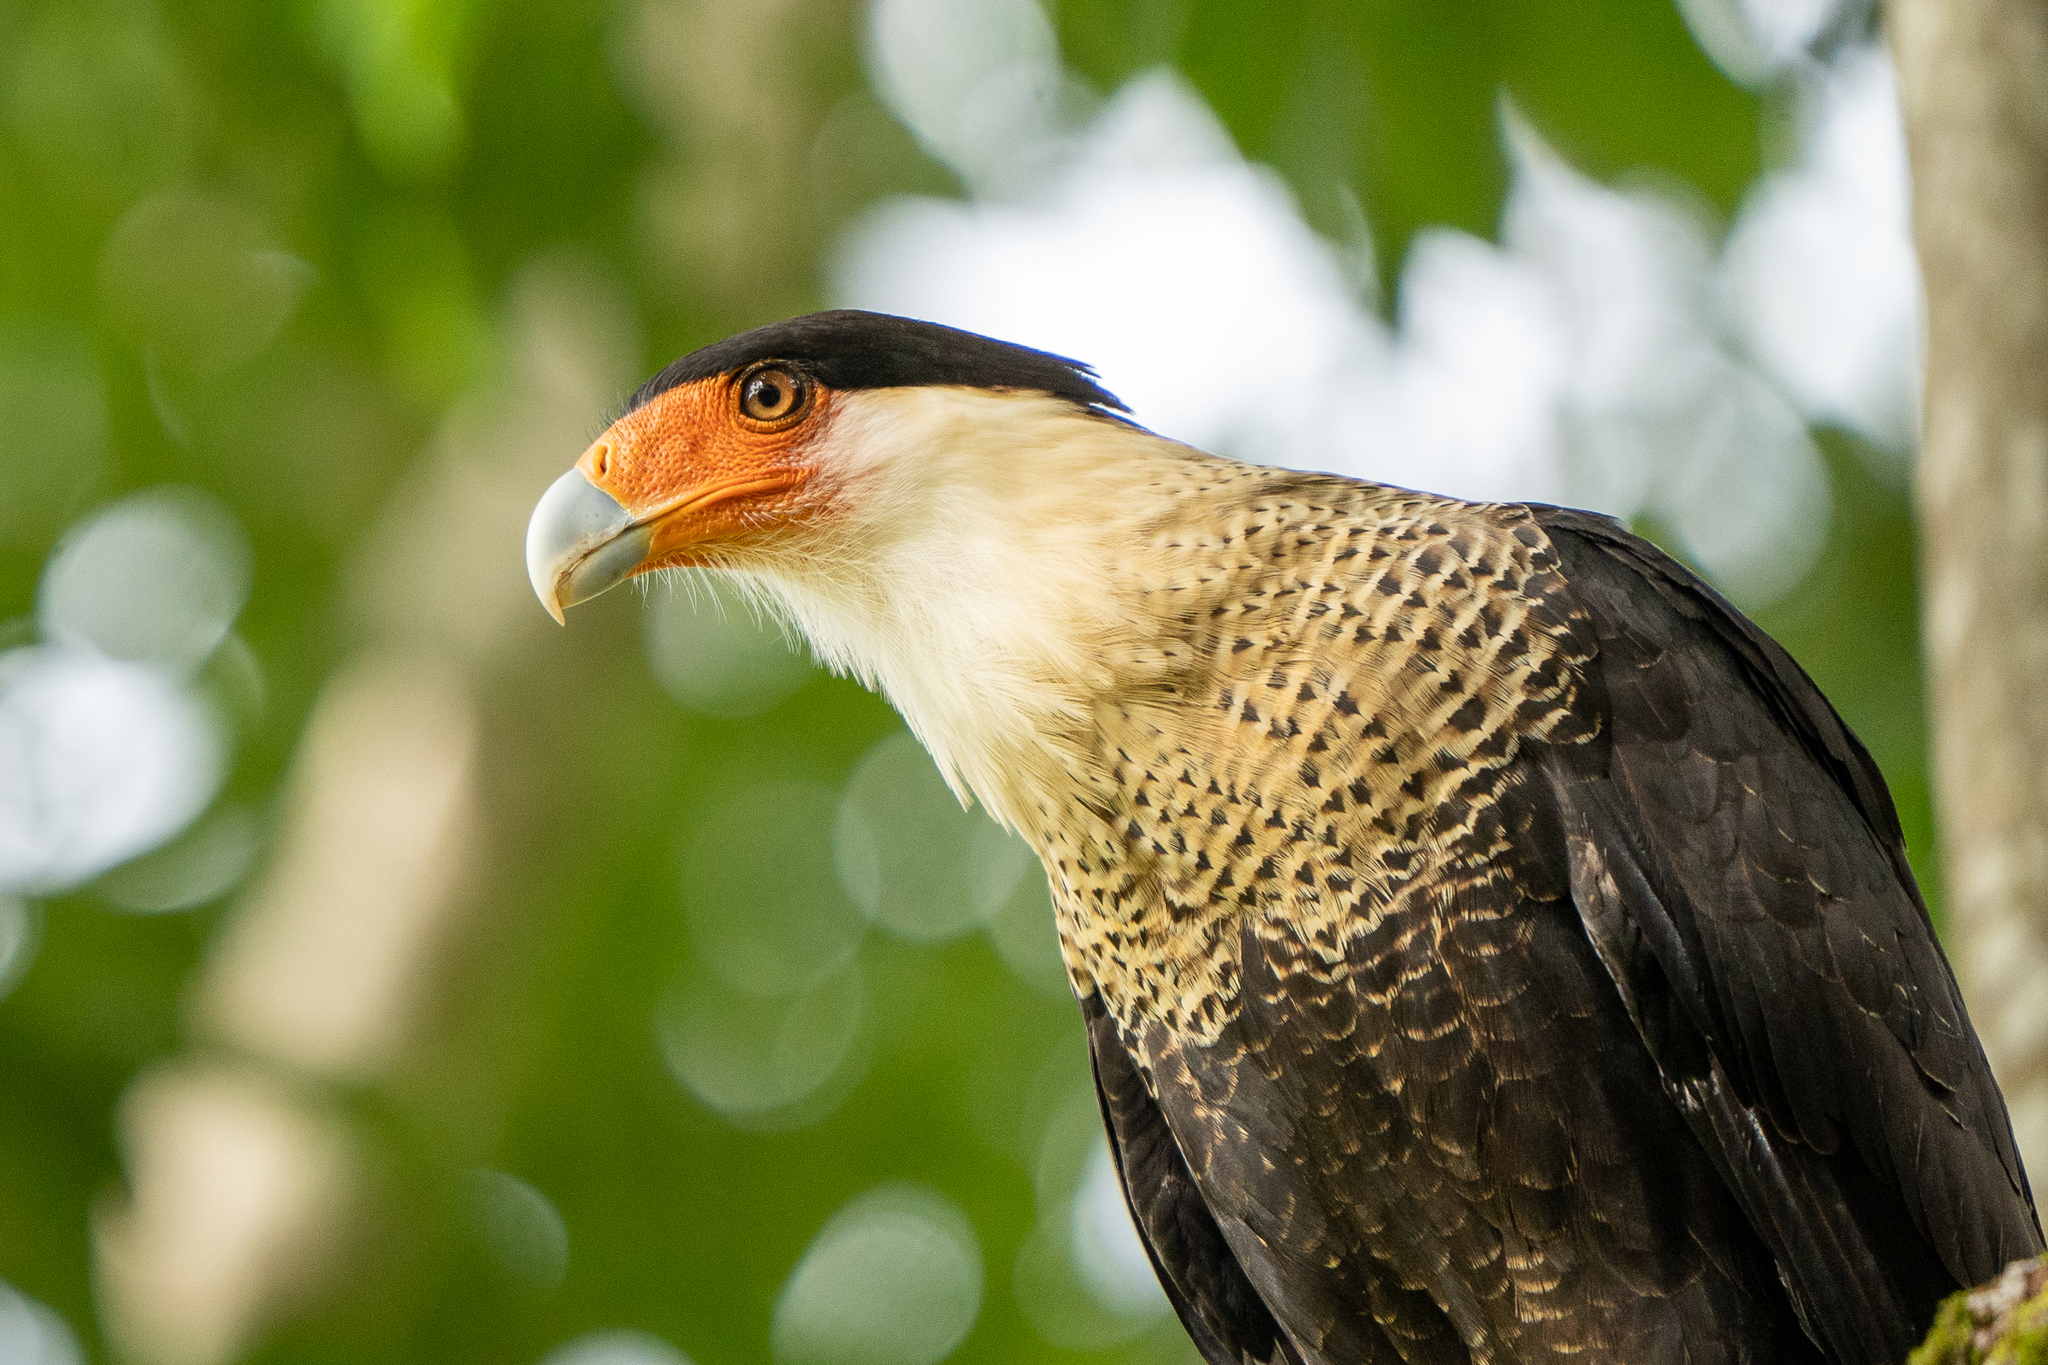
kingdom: Animalia
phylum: Chordata
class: Aves
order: Falconiformes
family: Falconidae
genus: Caracara
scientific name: Caracara plancus
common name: Southern caracara
